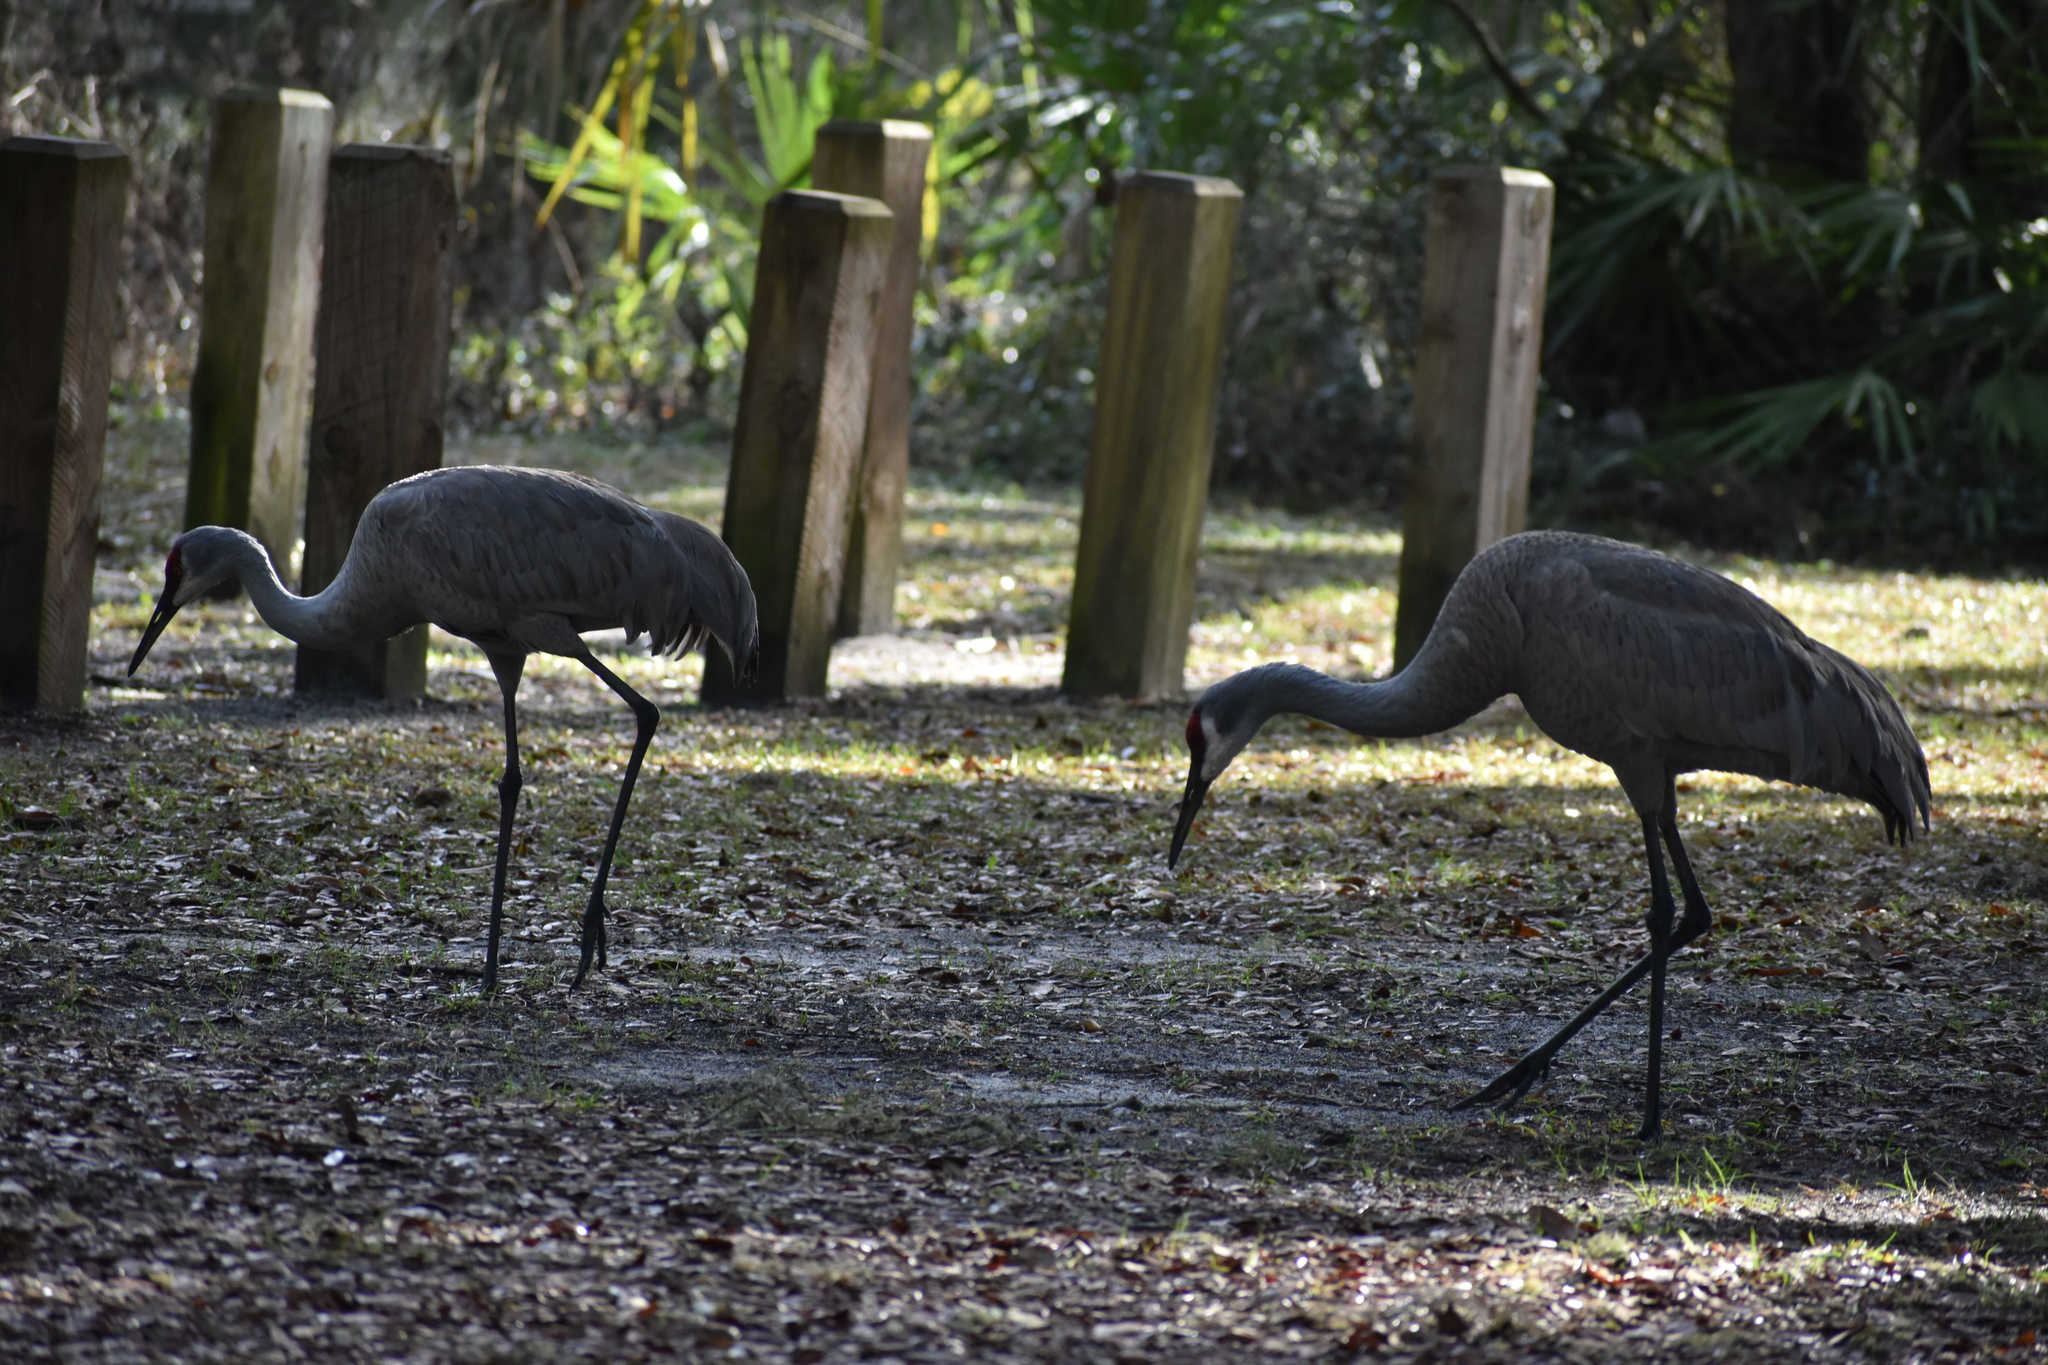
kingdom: Animalia
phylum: Chordata
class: Aves
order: Gruiformes
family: Gruidae
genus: Grus
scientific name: Grus canadensis
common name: Sandhill crane
